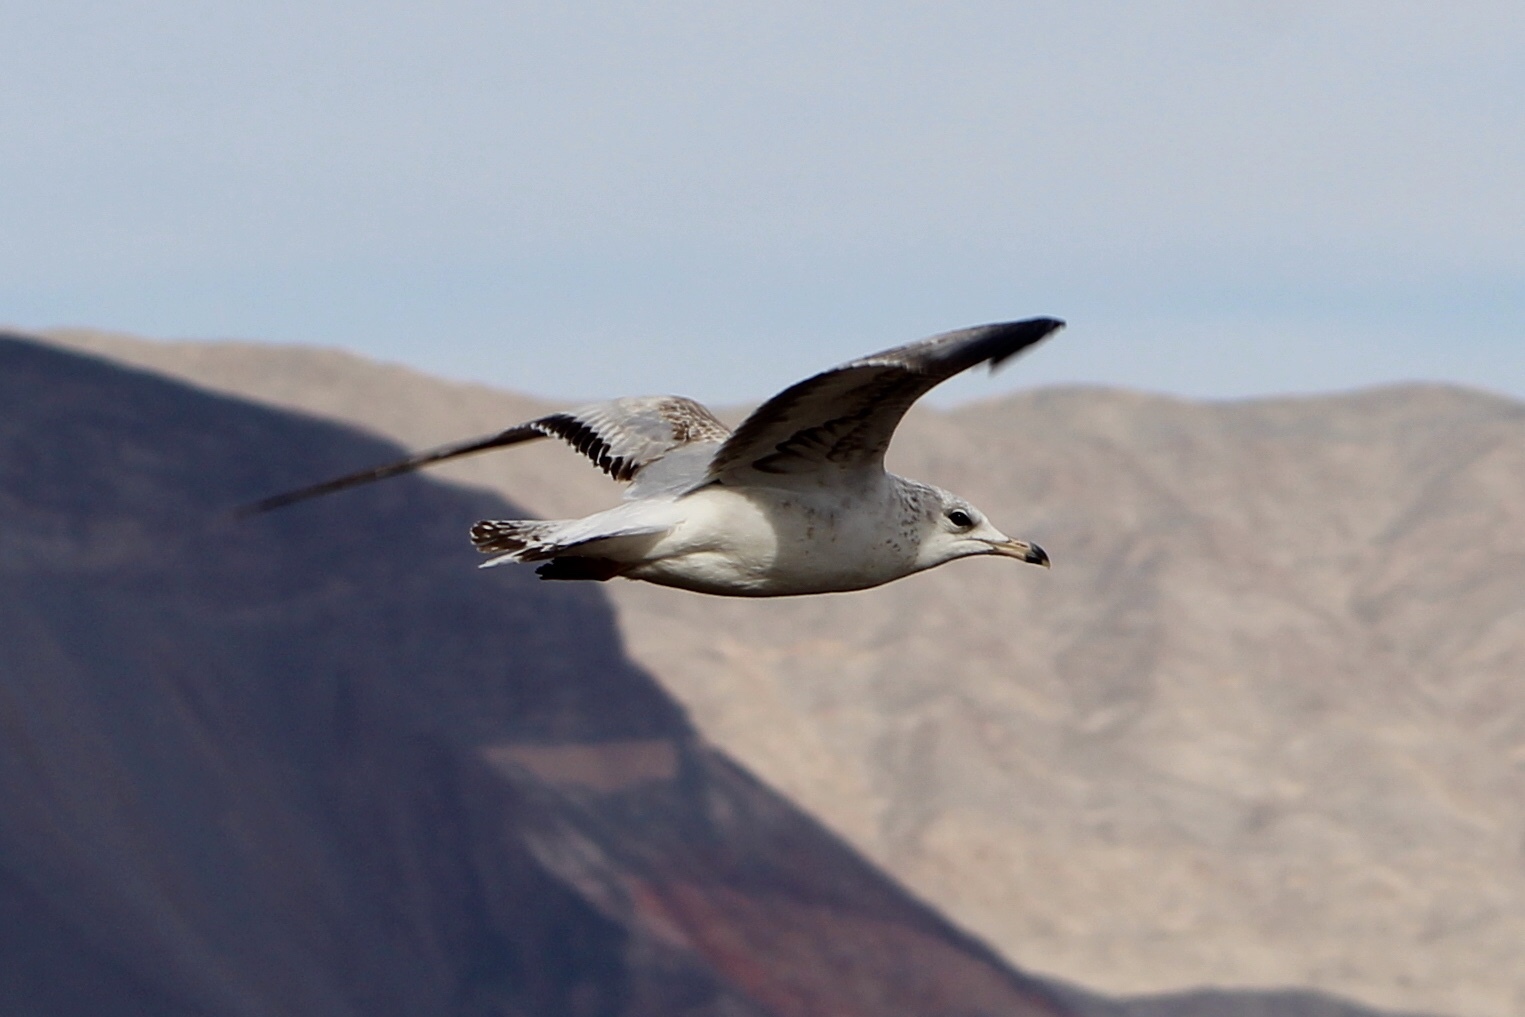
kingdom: Animalia
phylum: Chordata
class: Aves
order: Charadriiformes
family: Laridae
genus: Larus
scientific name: Larus delawarensis
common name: Ring-billed gull
